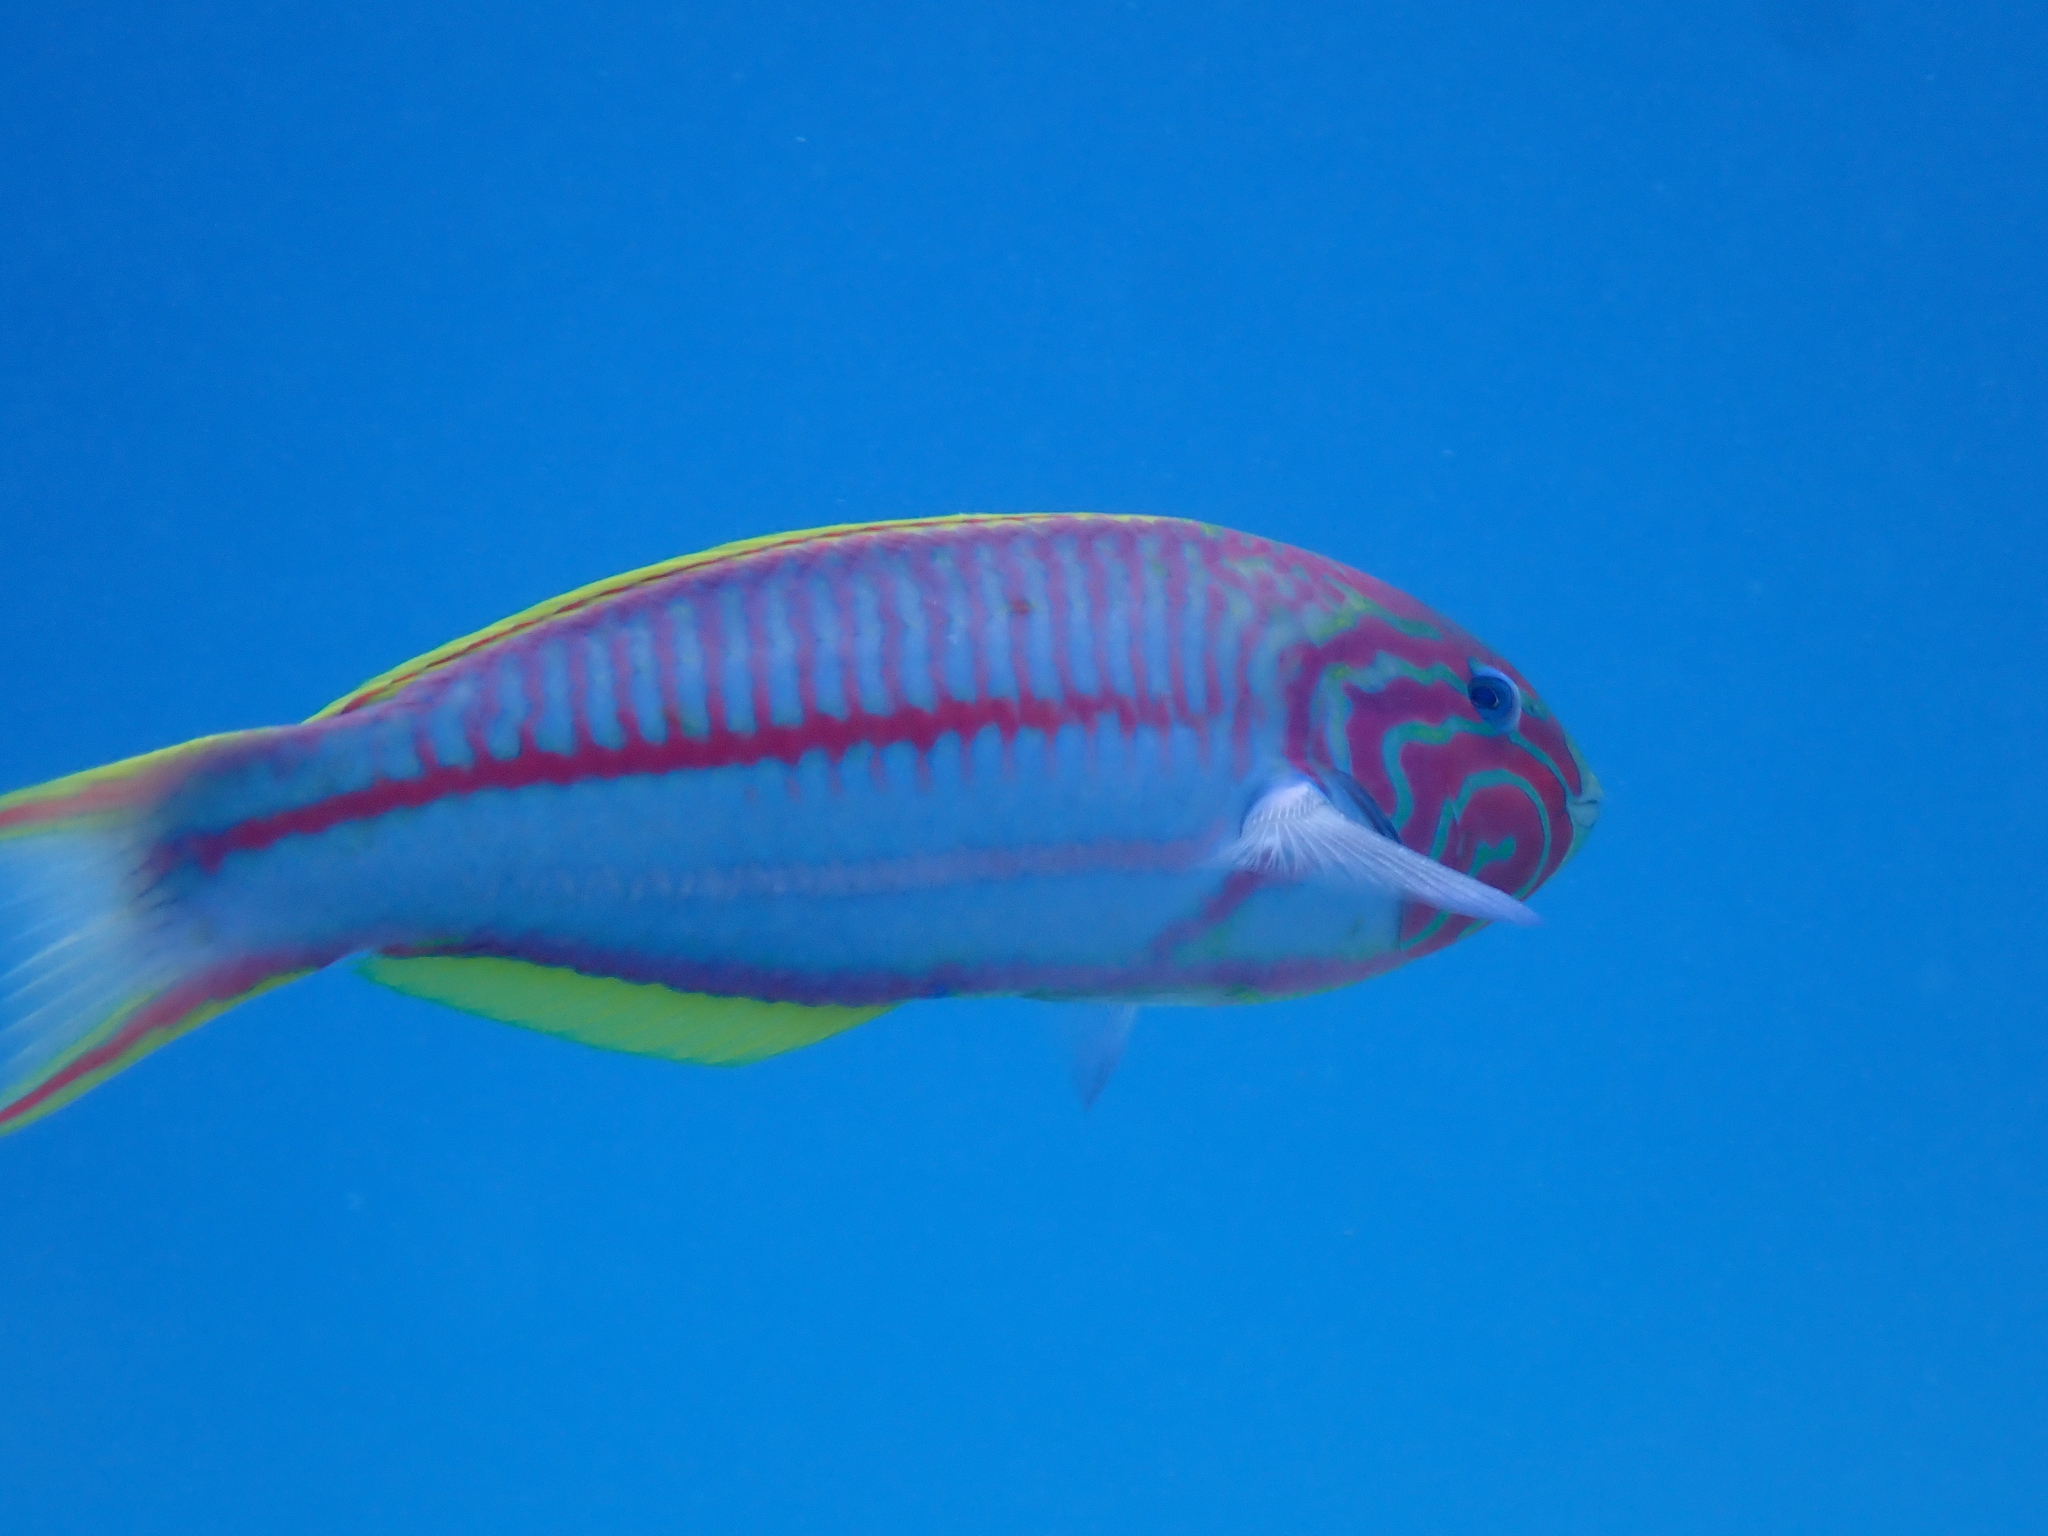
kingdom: Animalia
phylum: Chordata
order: Perciformes
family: Labridae
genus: Thalassoma
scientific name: Thalassoma rueppellii
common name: Klunzinger's wrasse
